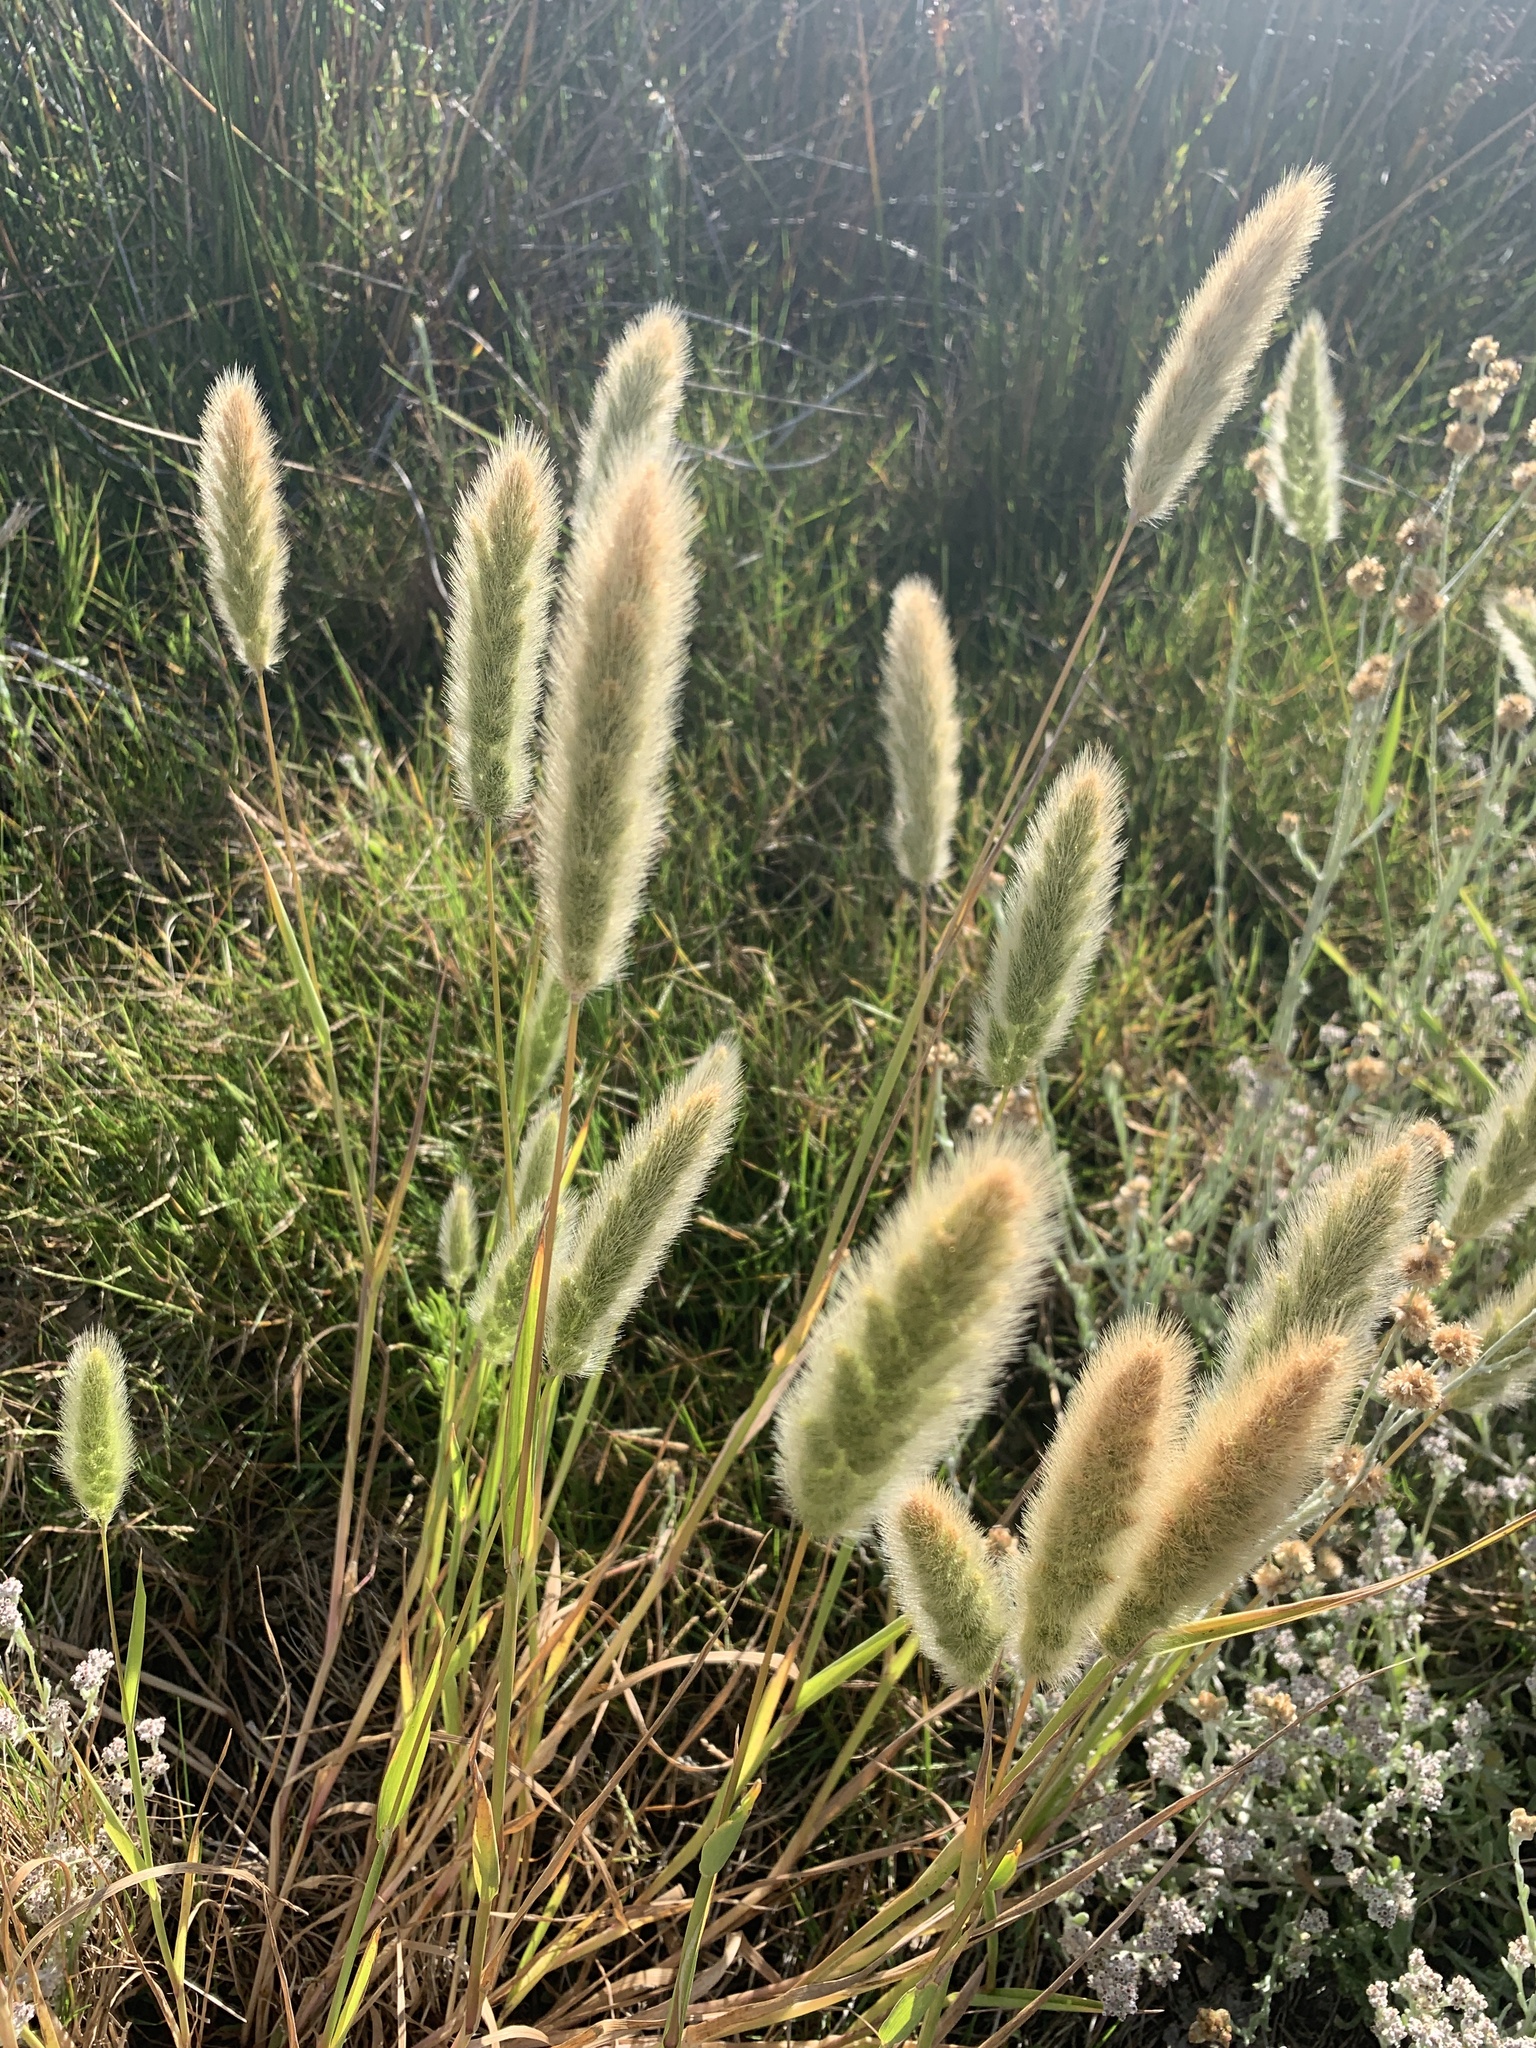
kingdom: Plantae
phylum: Tracheophyta
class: Liliopsida
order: Poales
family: Poaceae
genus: Polypogon
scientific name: Polypogon monspeliensis
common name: Annual rabbitsfoot grass
